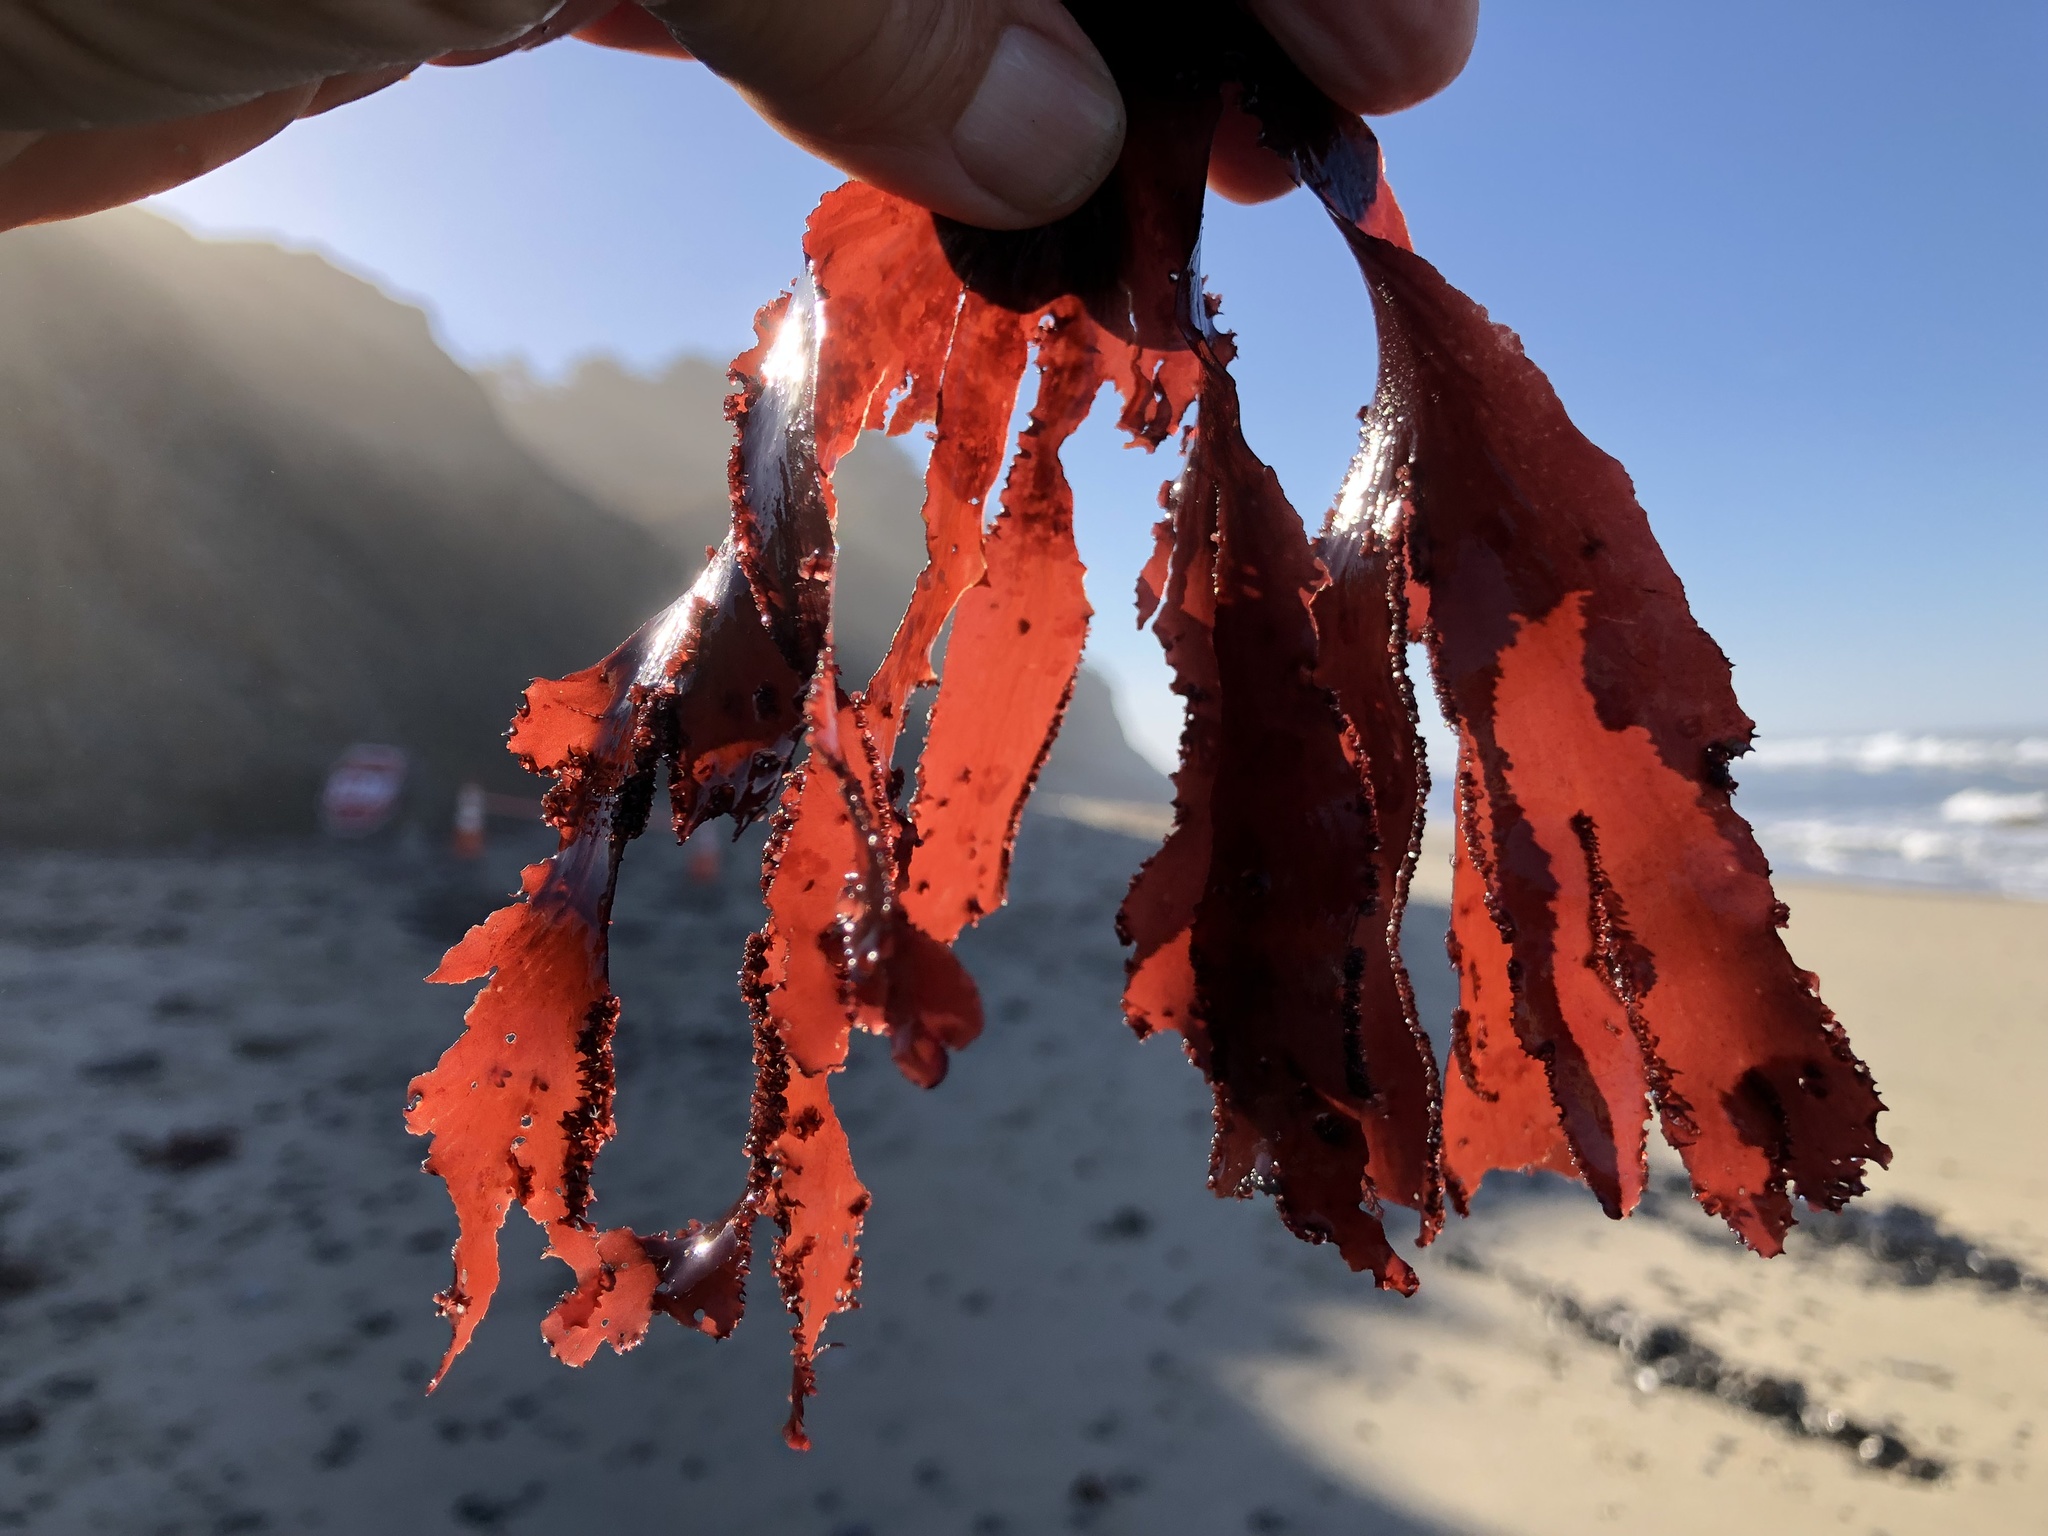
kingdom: Plantae
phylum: Rhodophyta
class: Florideophyceae
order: Ceramiales
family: Delesseriaceae
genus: Cryptopleura
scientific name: Cryptopleura ruprechtiana
